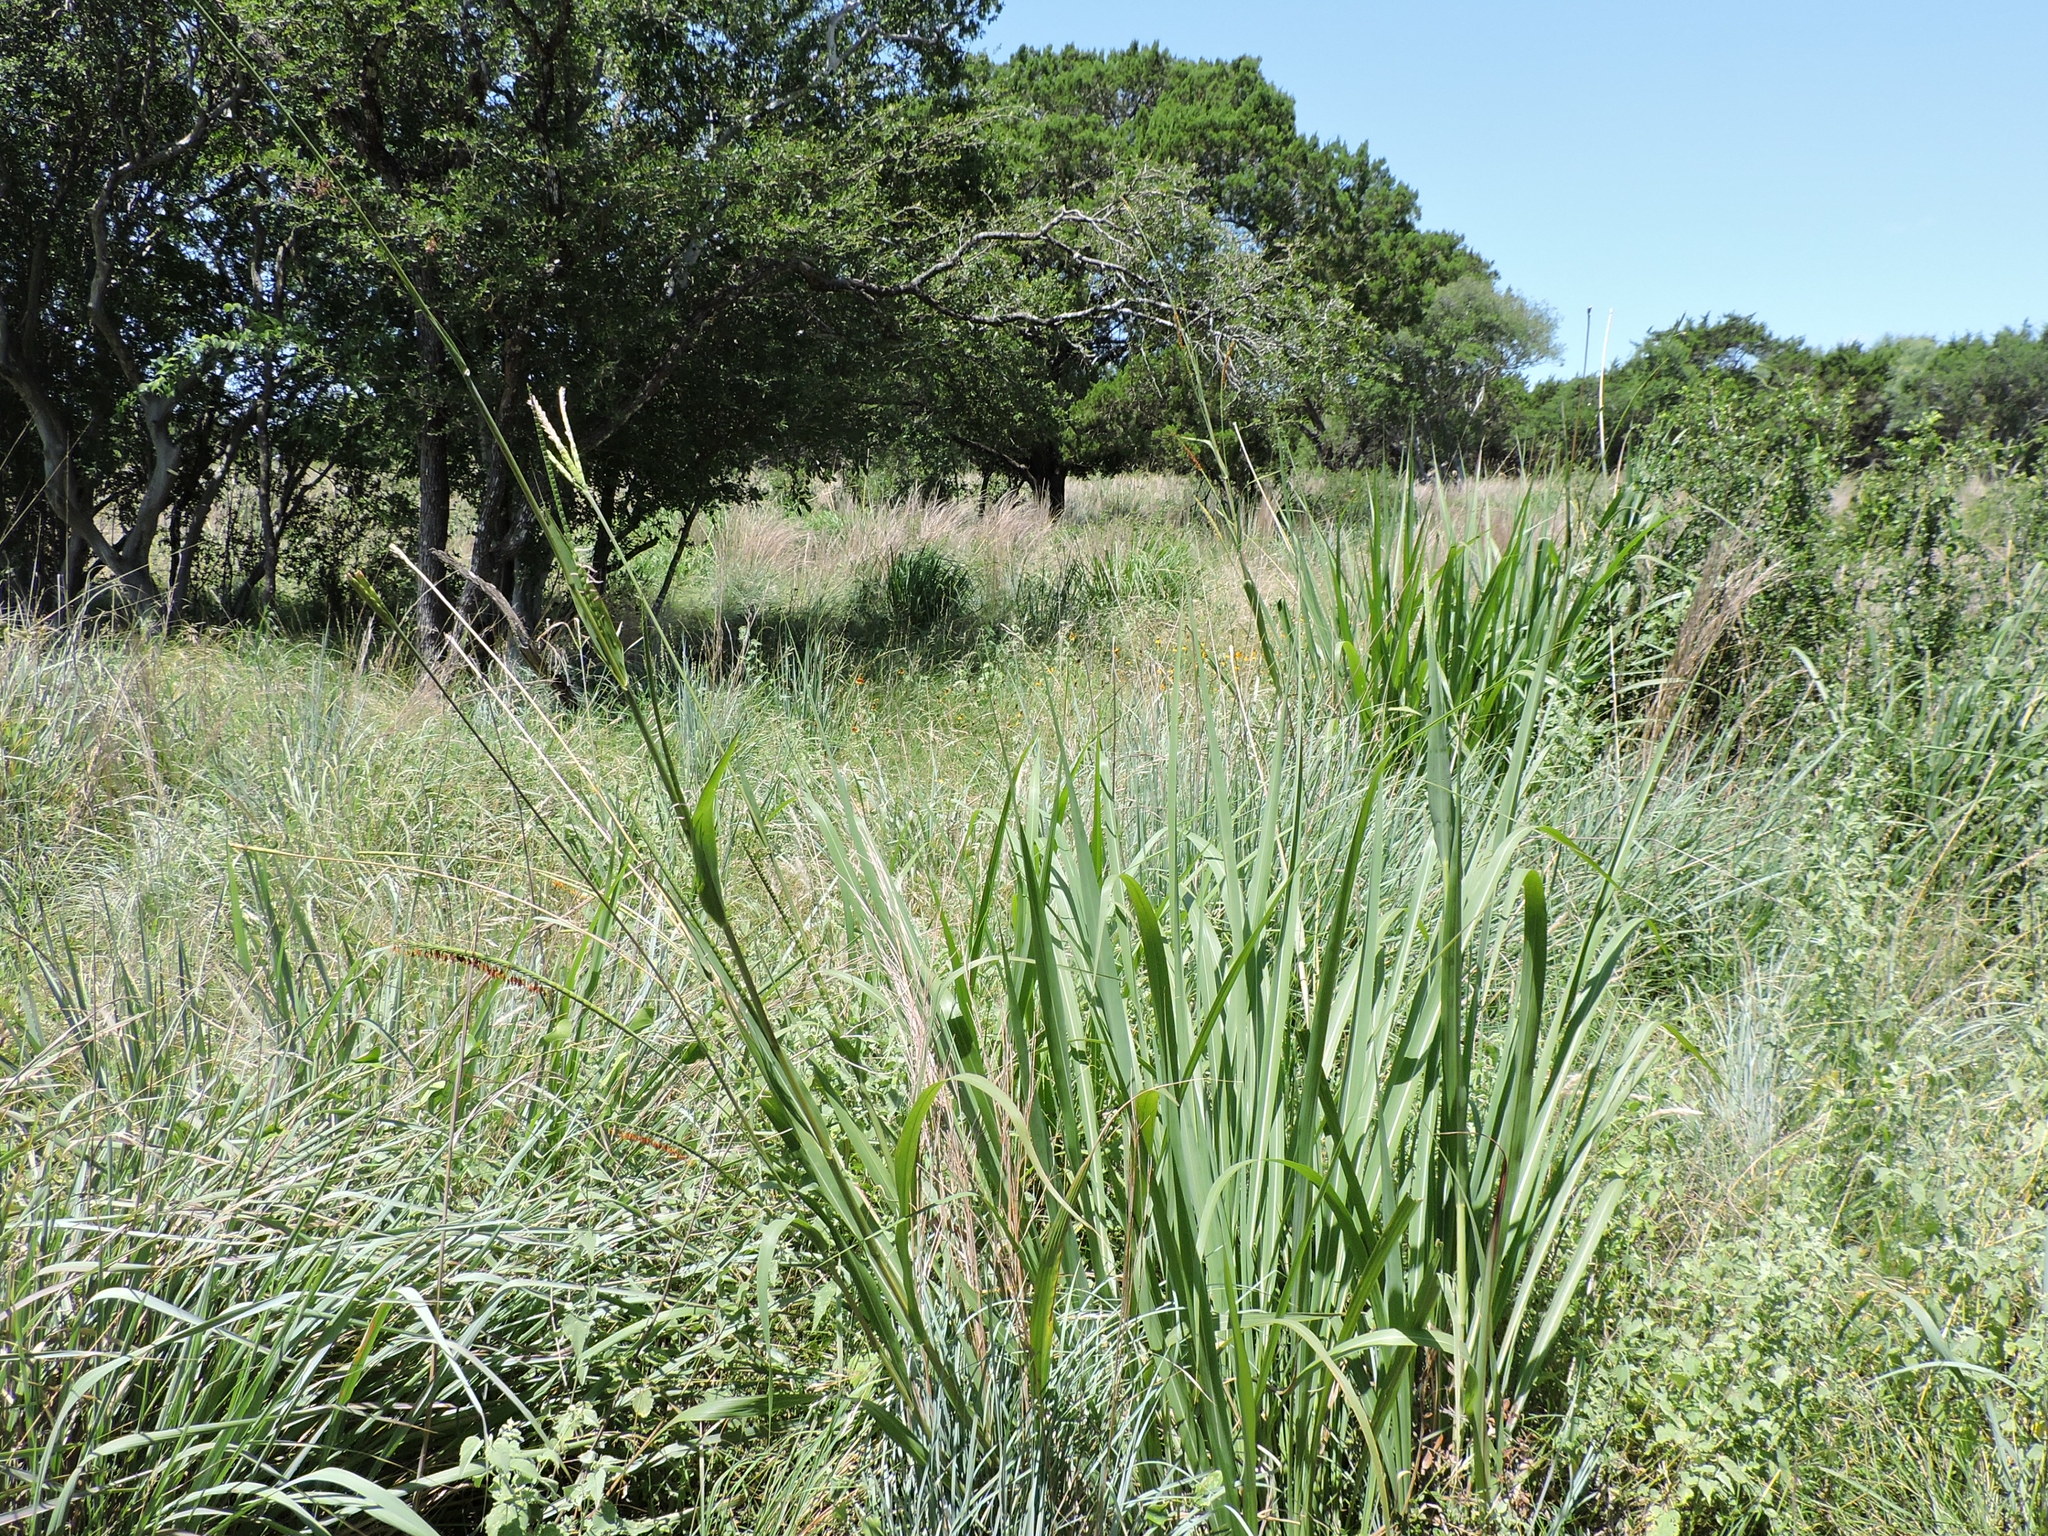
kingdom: Plantae
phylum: Tracheophyta
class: Liliopsida
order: Poales
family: Poaceae
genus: Tripsacum
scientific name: Tripsacum dactyloides
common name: Buffalo-grass
